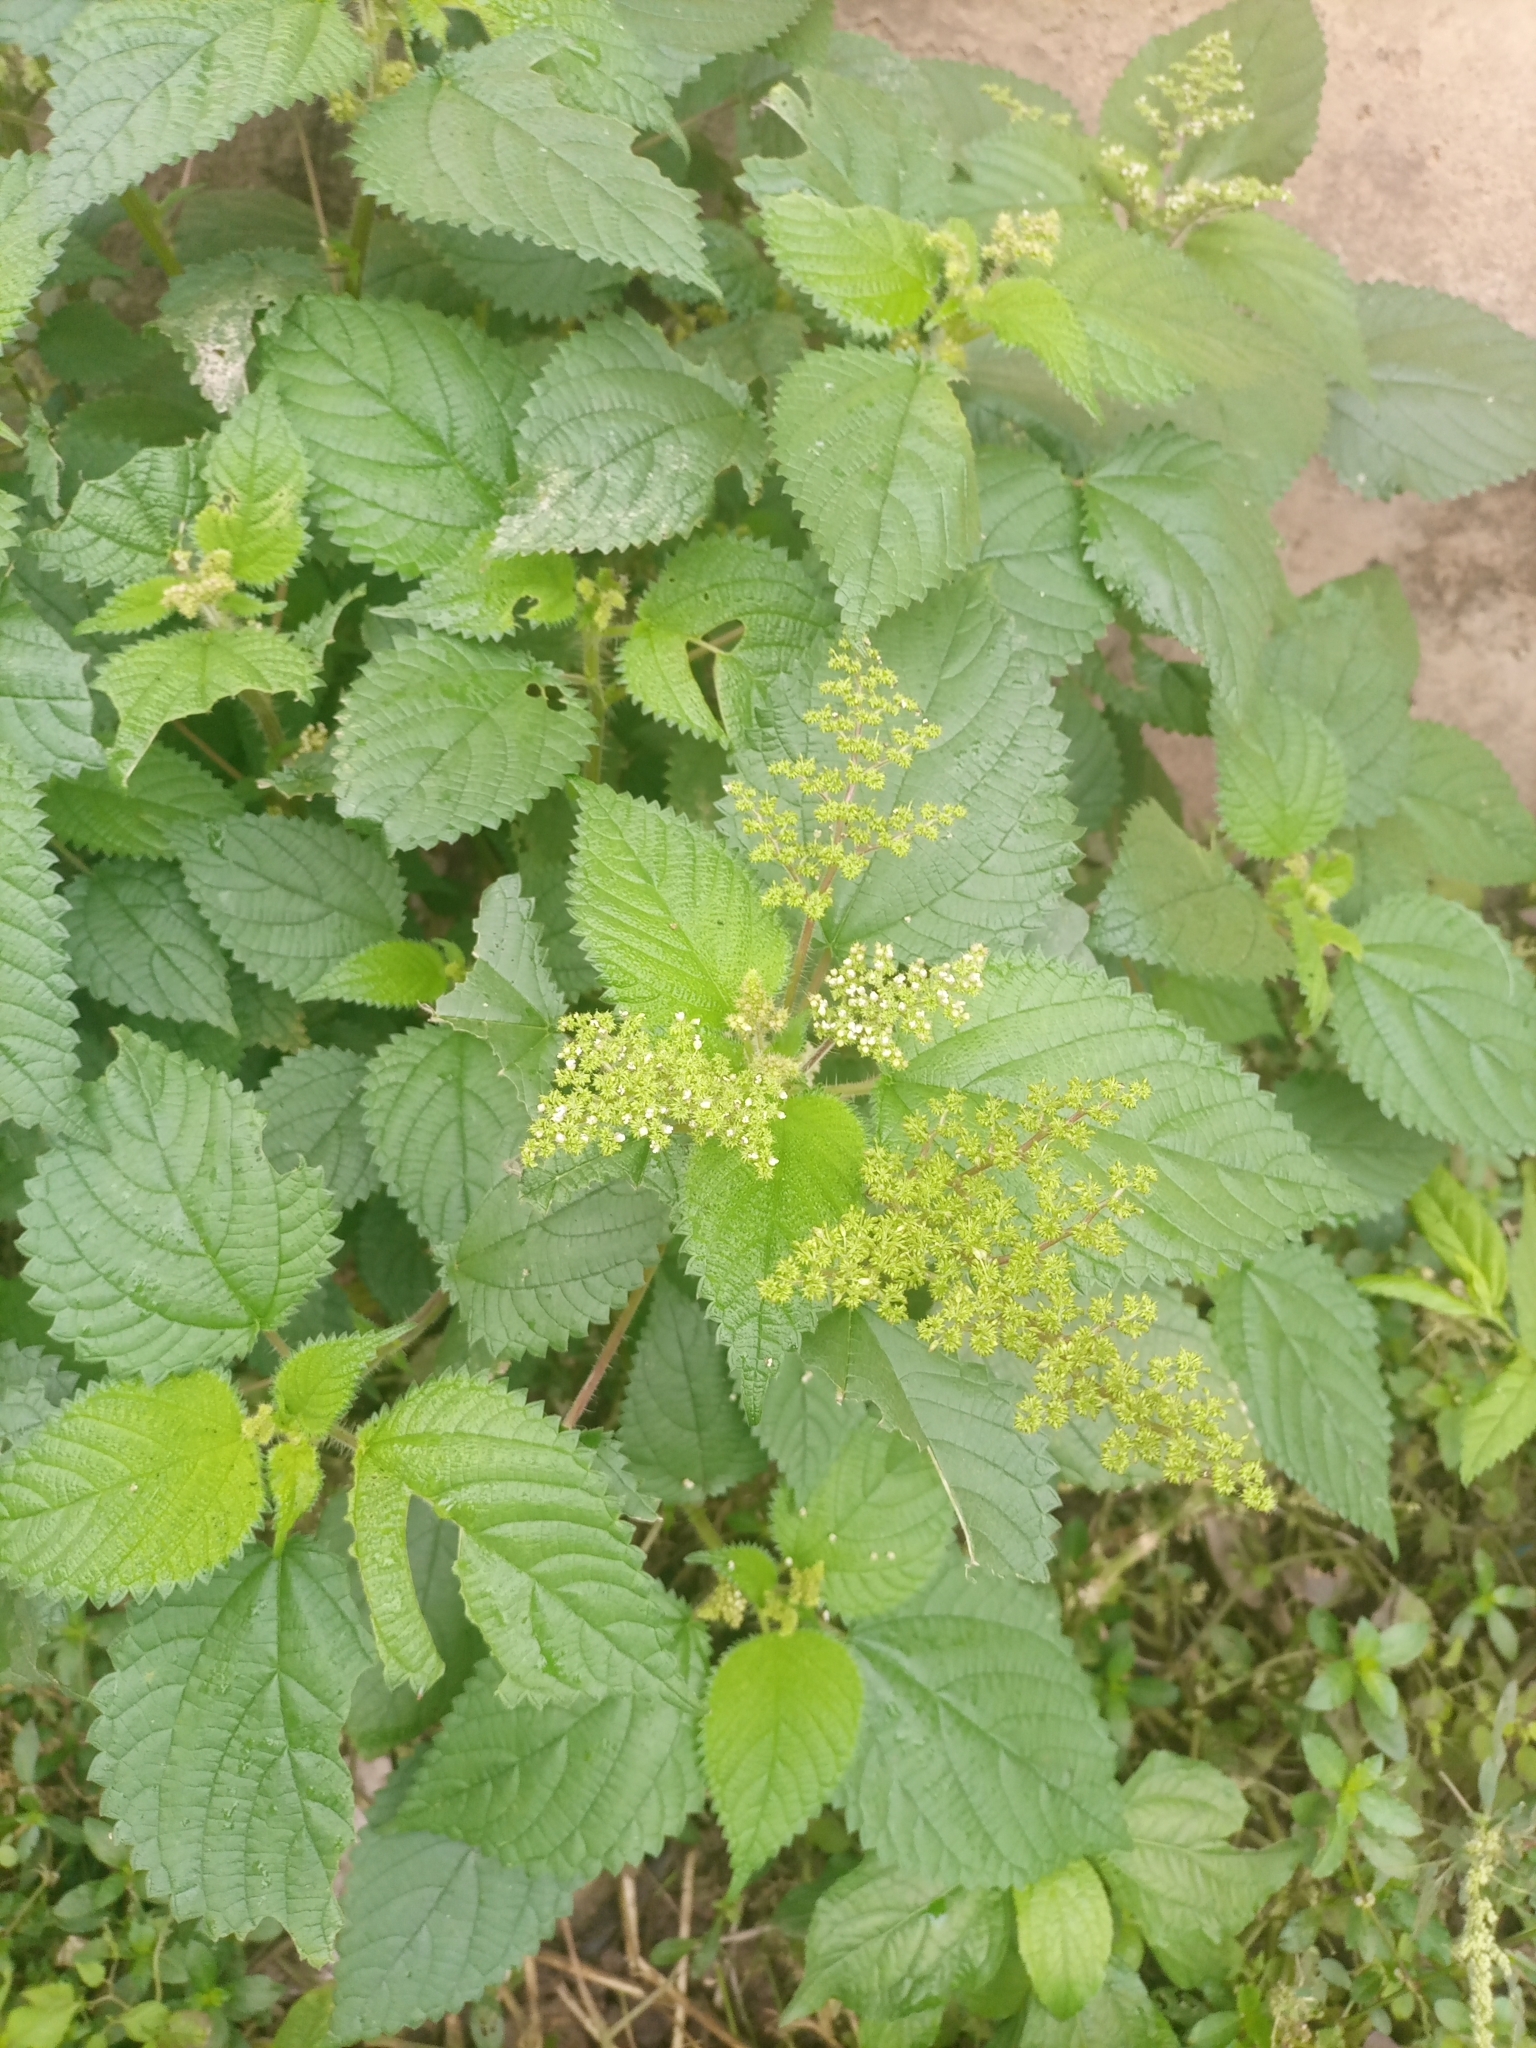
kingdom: Plantae
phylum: Tracheophyta
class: Magnoliopsida
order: Rosales
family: Urticaceae
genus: Laportea
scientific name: Laportea aestuans
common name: West indian woodnettle
